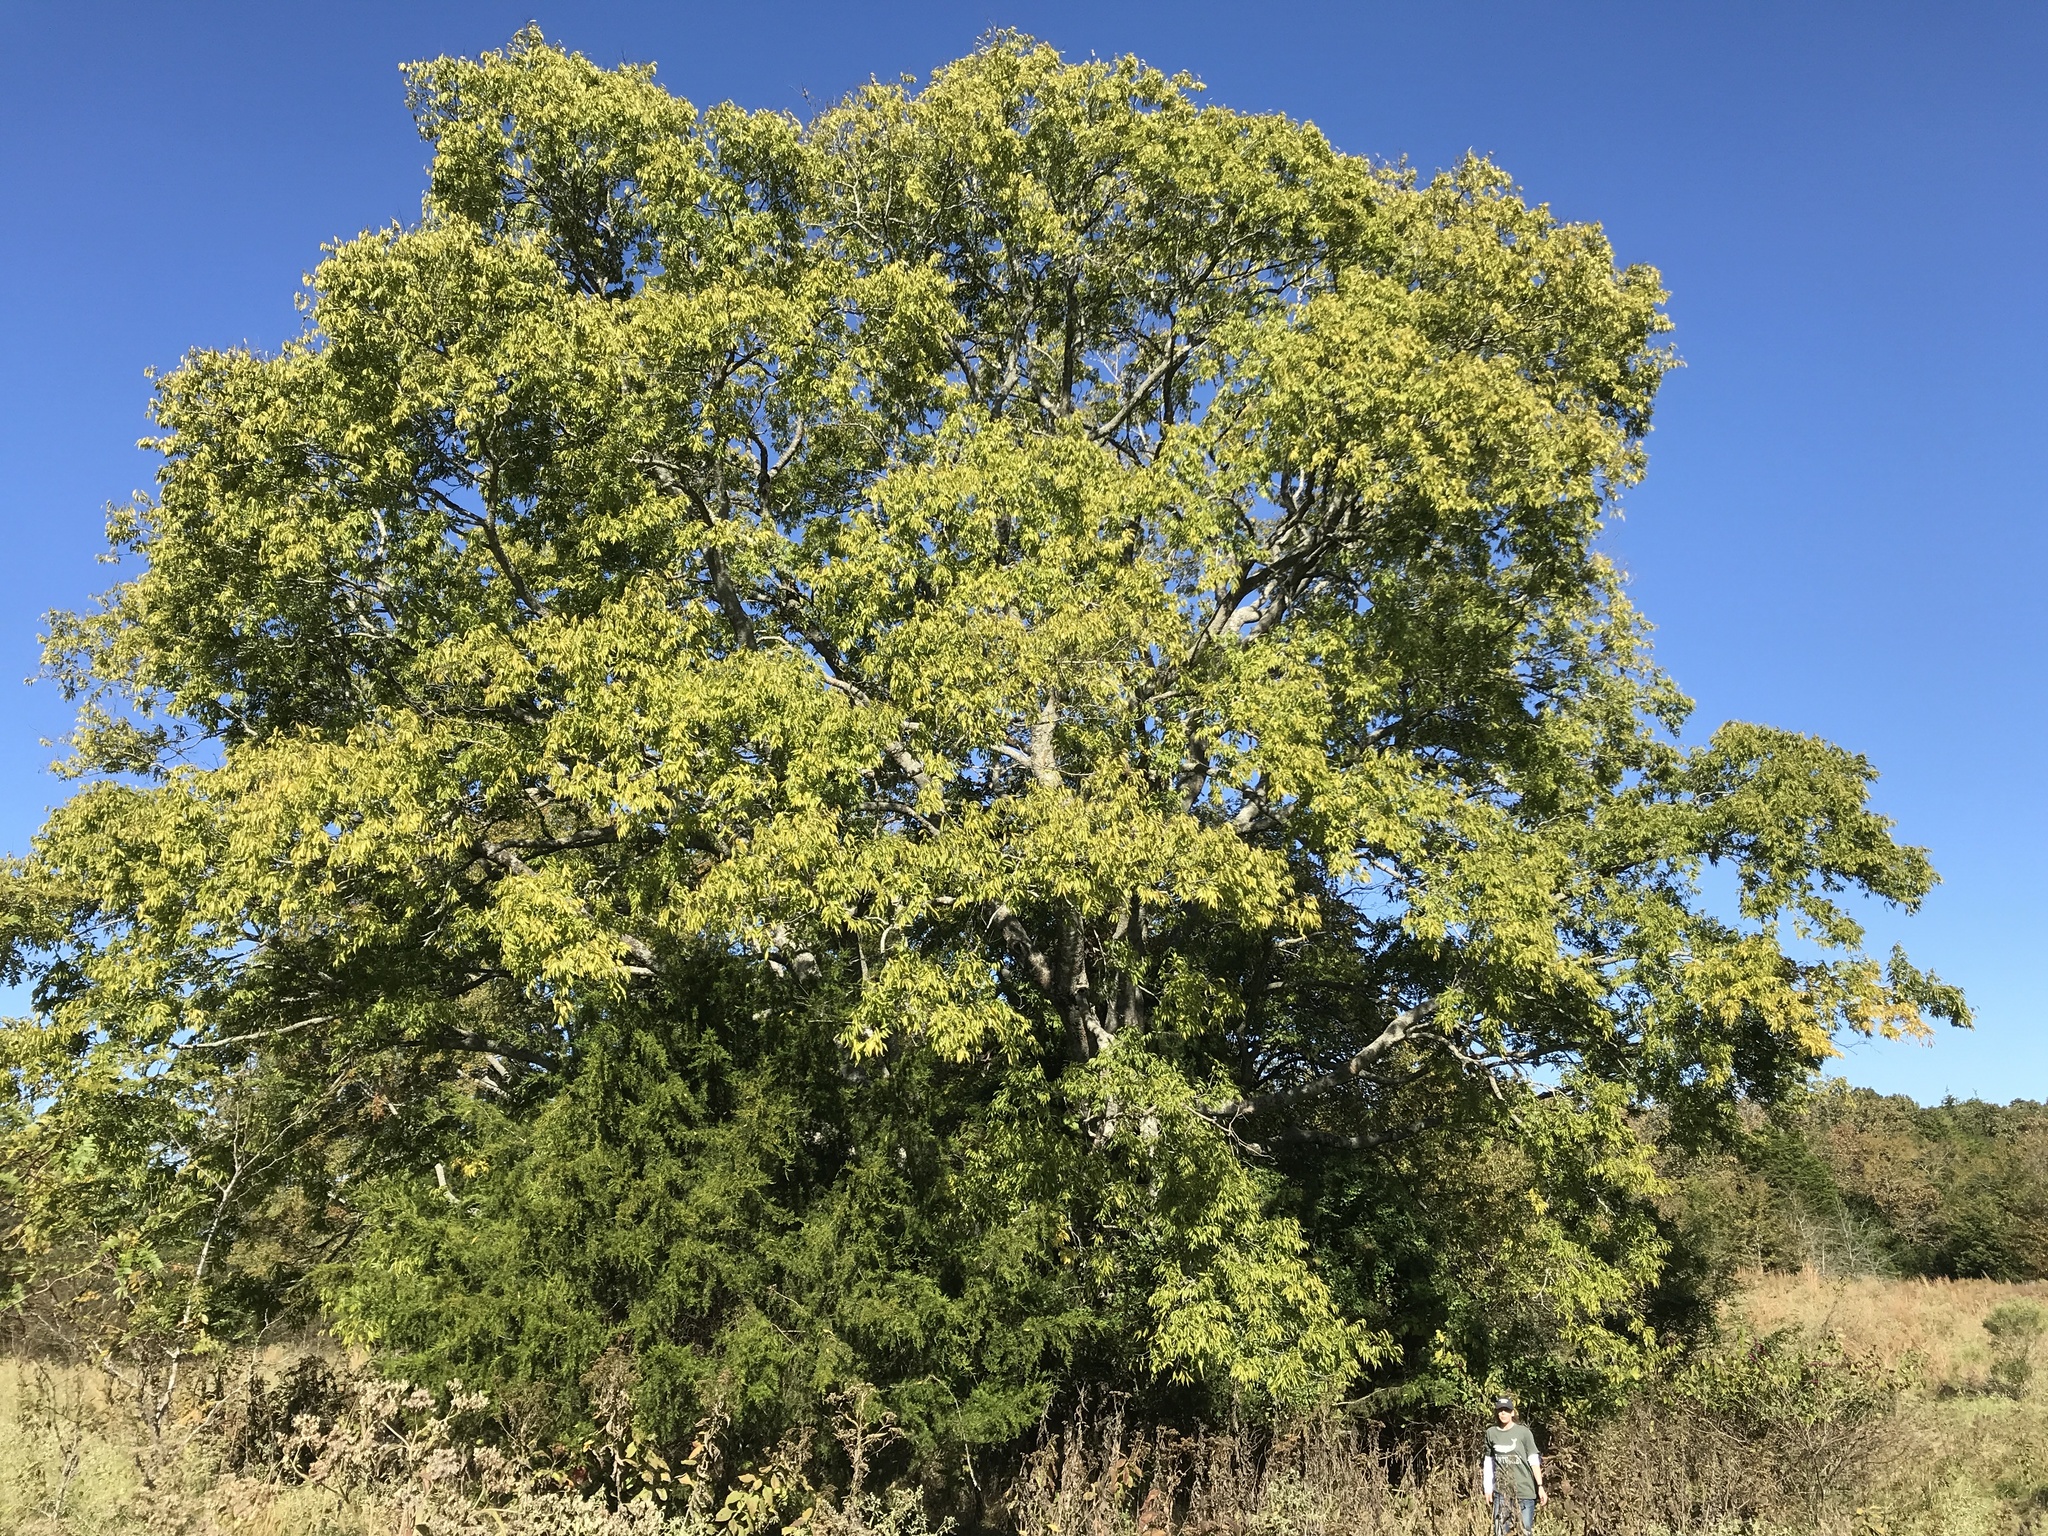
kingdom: Plantae
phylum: Tracheophyta
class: Magnoliopsida
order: Rosales
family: Cannabaceae
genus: Celtis
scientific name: Celtis laevigata
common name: Sugarberry
